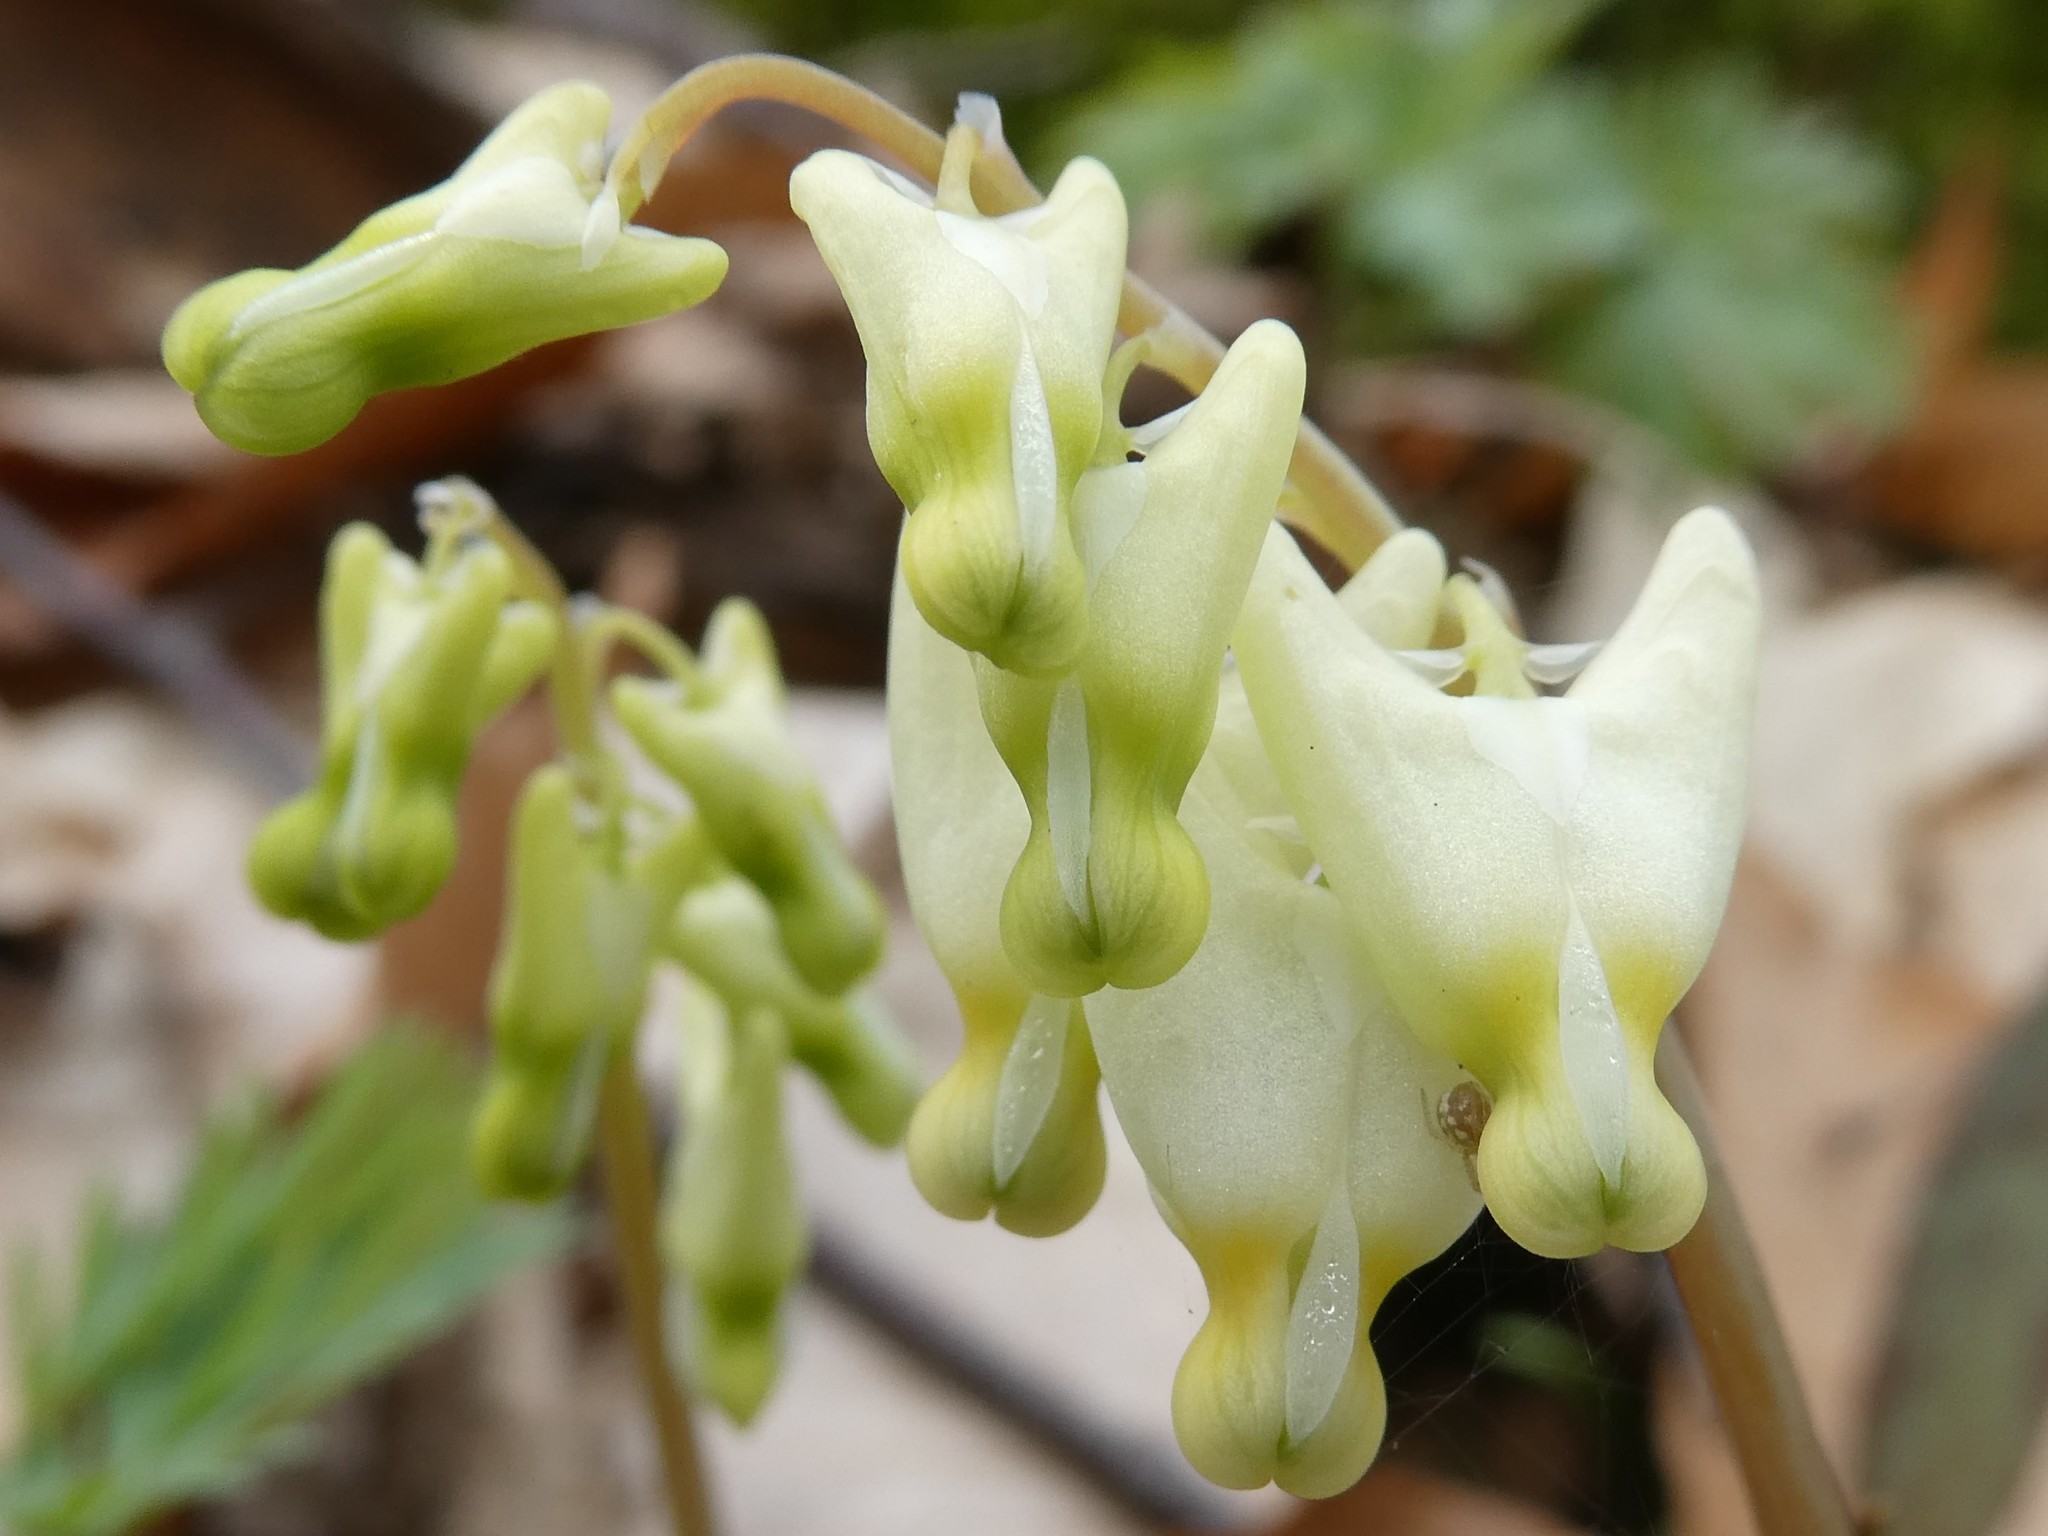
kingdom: Plantae
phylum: Tracheophyta
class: Magnoliopsida
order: Ranunculales
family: Papaveraceae
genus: Dicentra
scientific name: Dicentra cucullaria
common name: Dutchman's breeches
